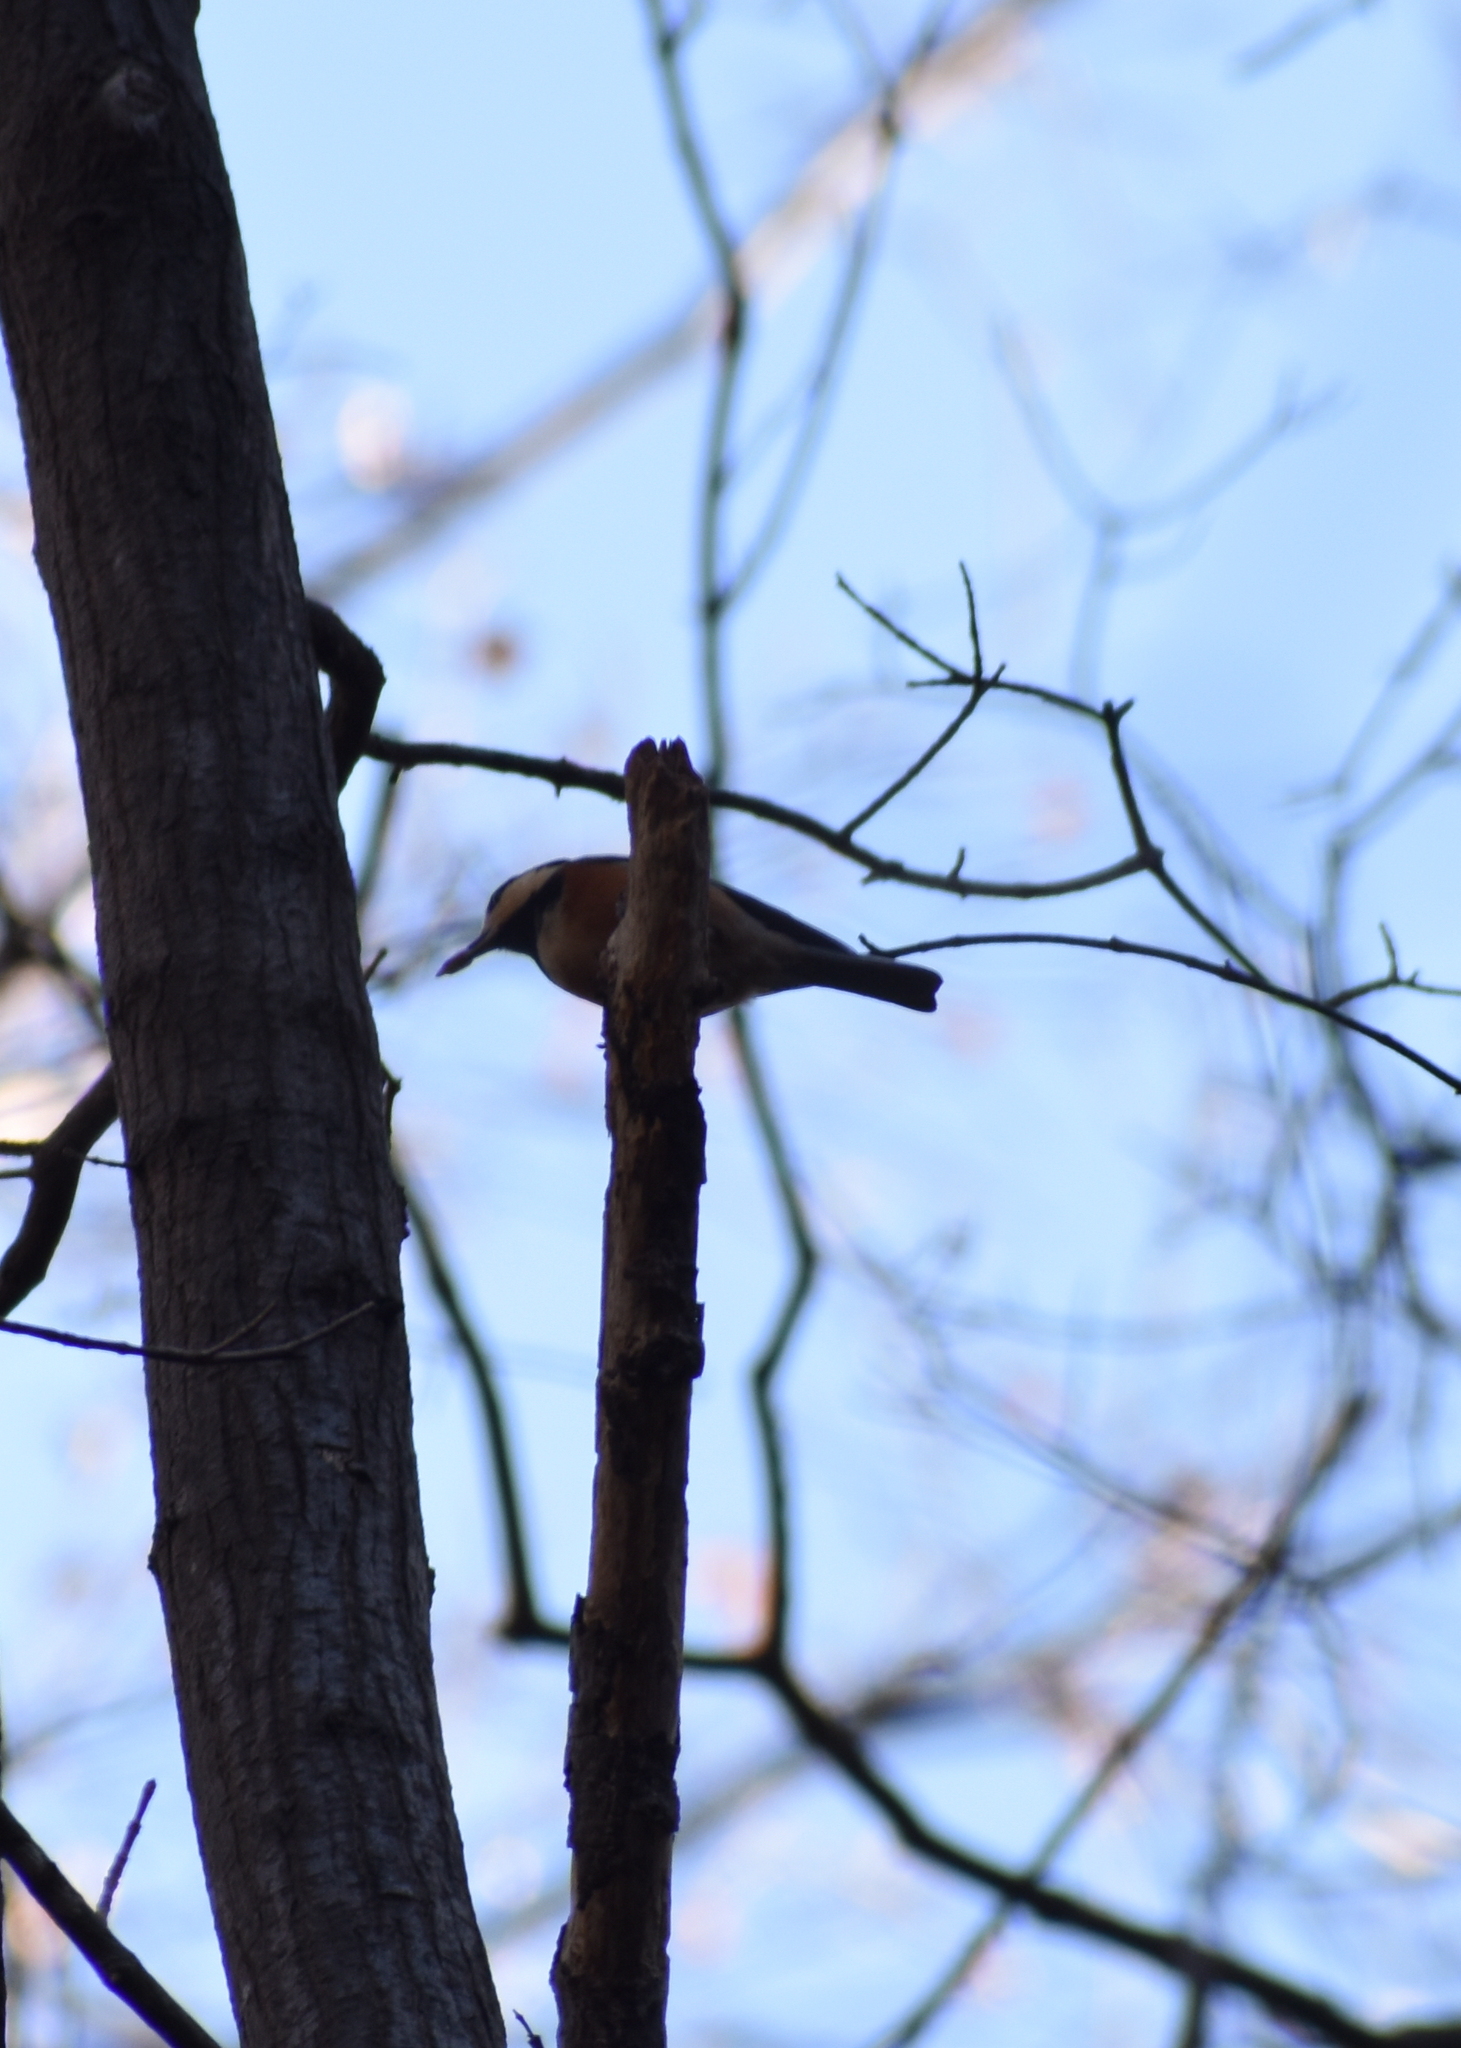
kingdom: Animalia
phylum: Chordata
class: Aves
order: Passeriformes
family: Paridae
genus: Poecile
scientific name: Poecile varius
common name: Varied tit
